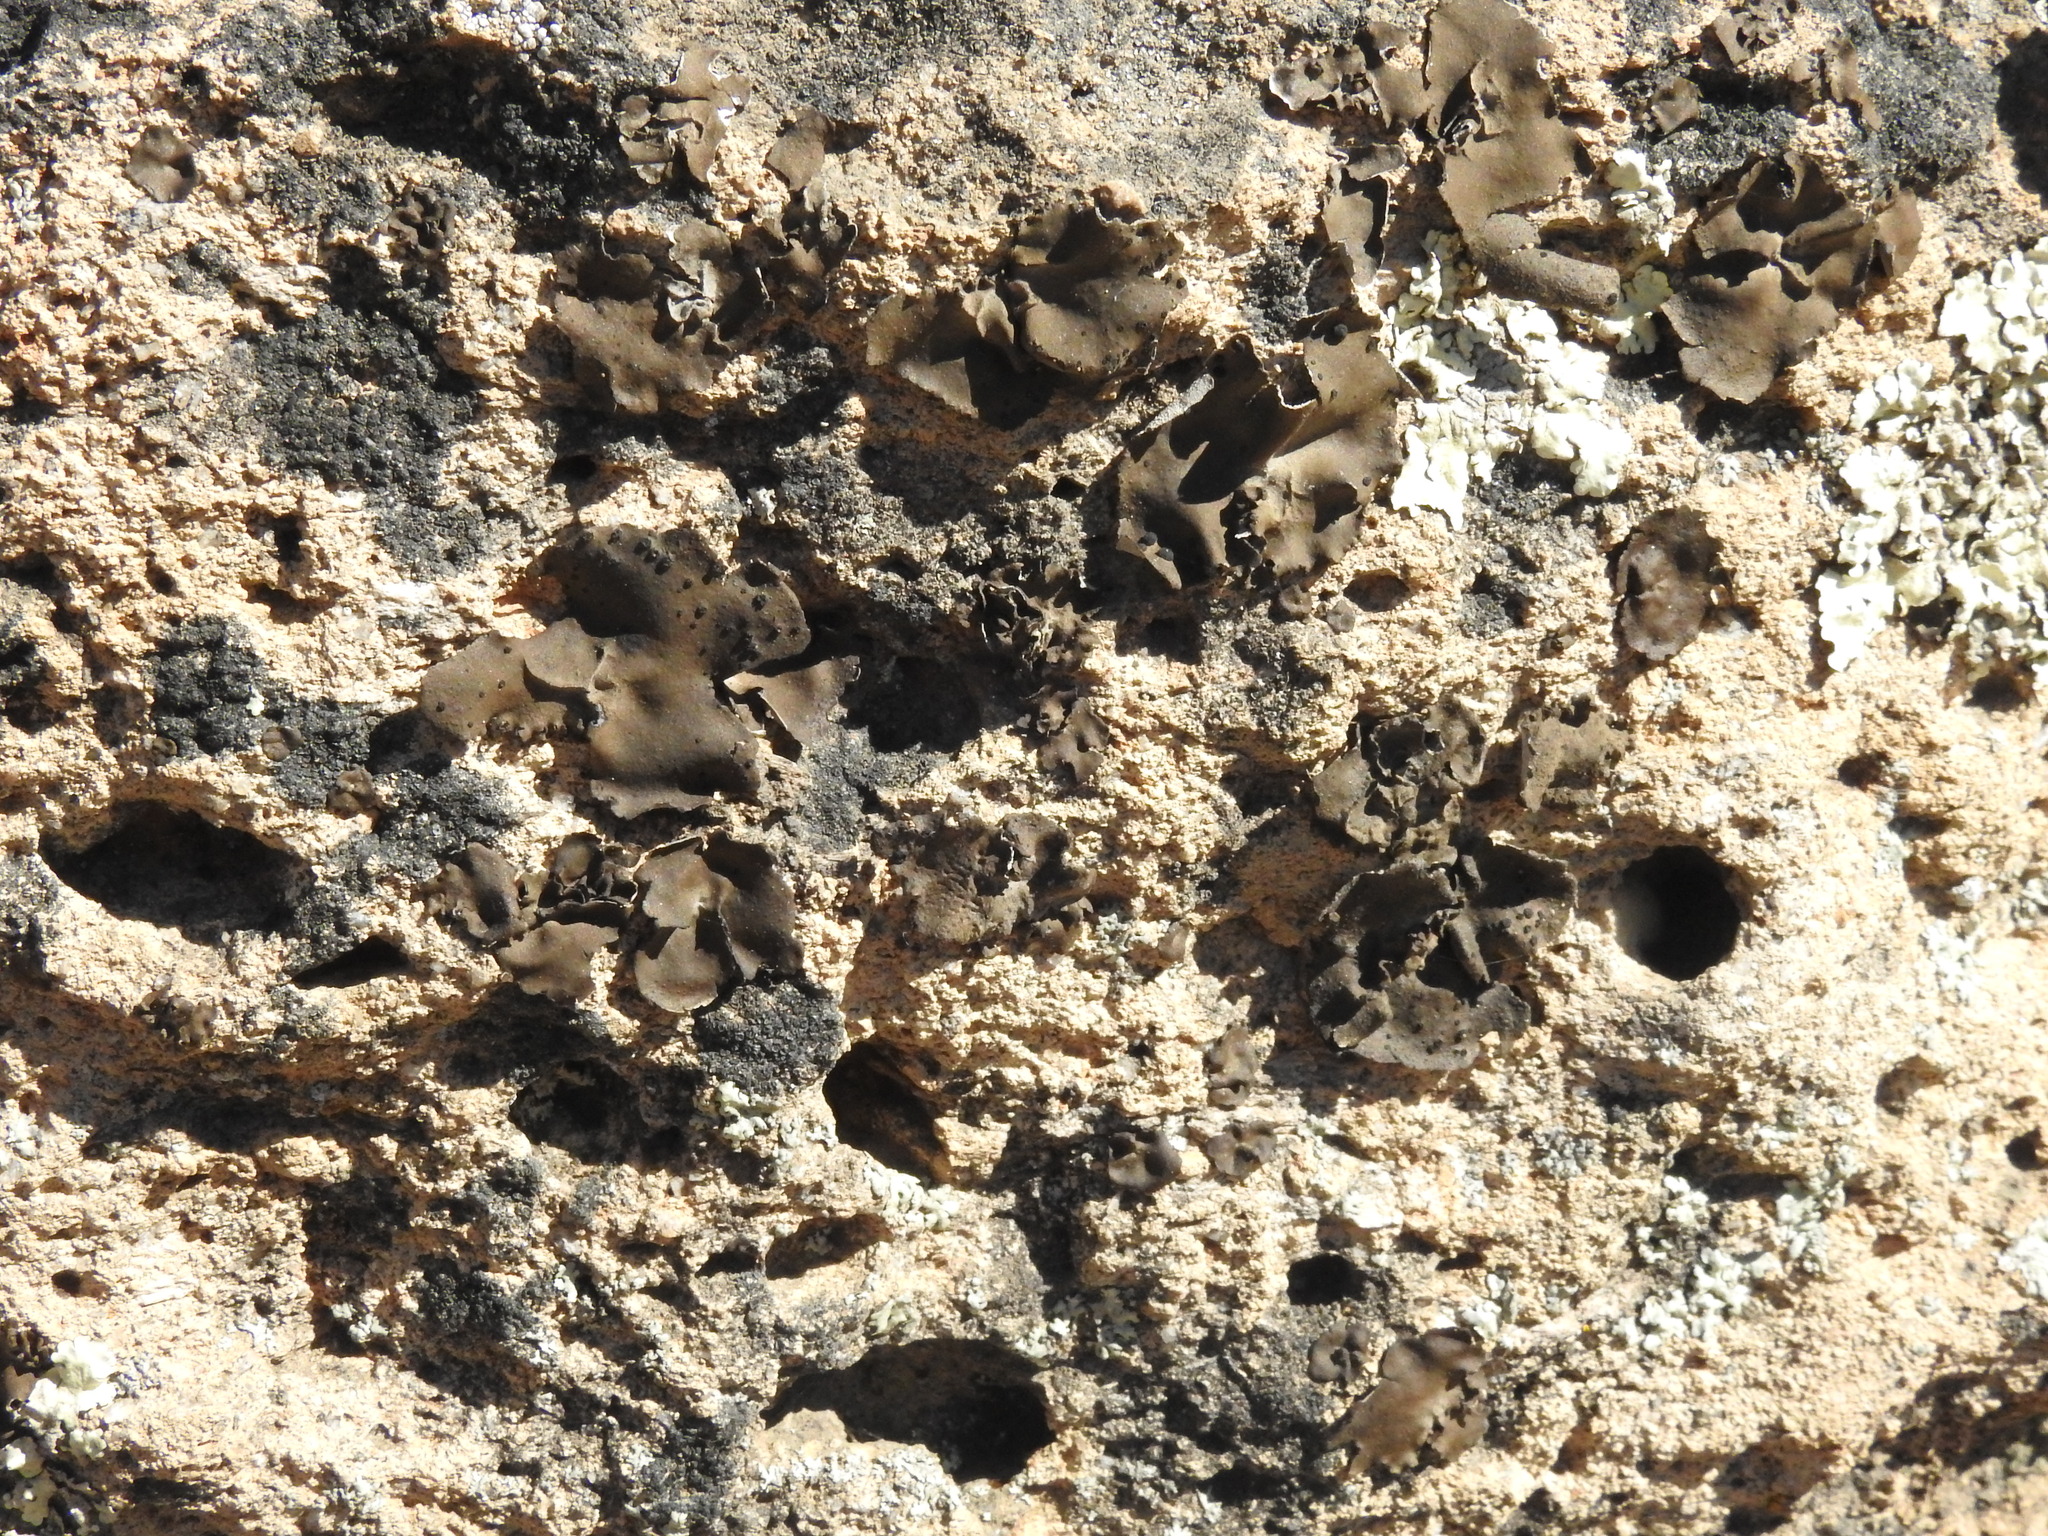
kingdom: Fungi
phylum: Ascomycota
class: Lecanoromycetes
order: Umbilicariales
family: Umbilicariaceae
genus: Umbilicaria
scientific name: Umbilicaria phaea
